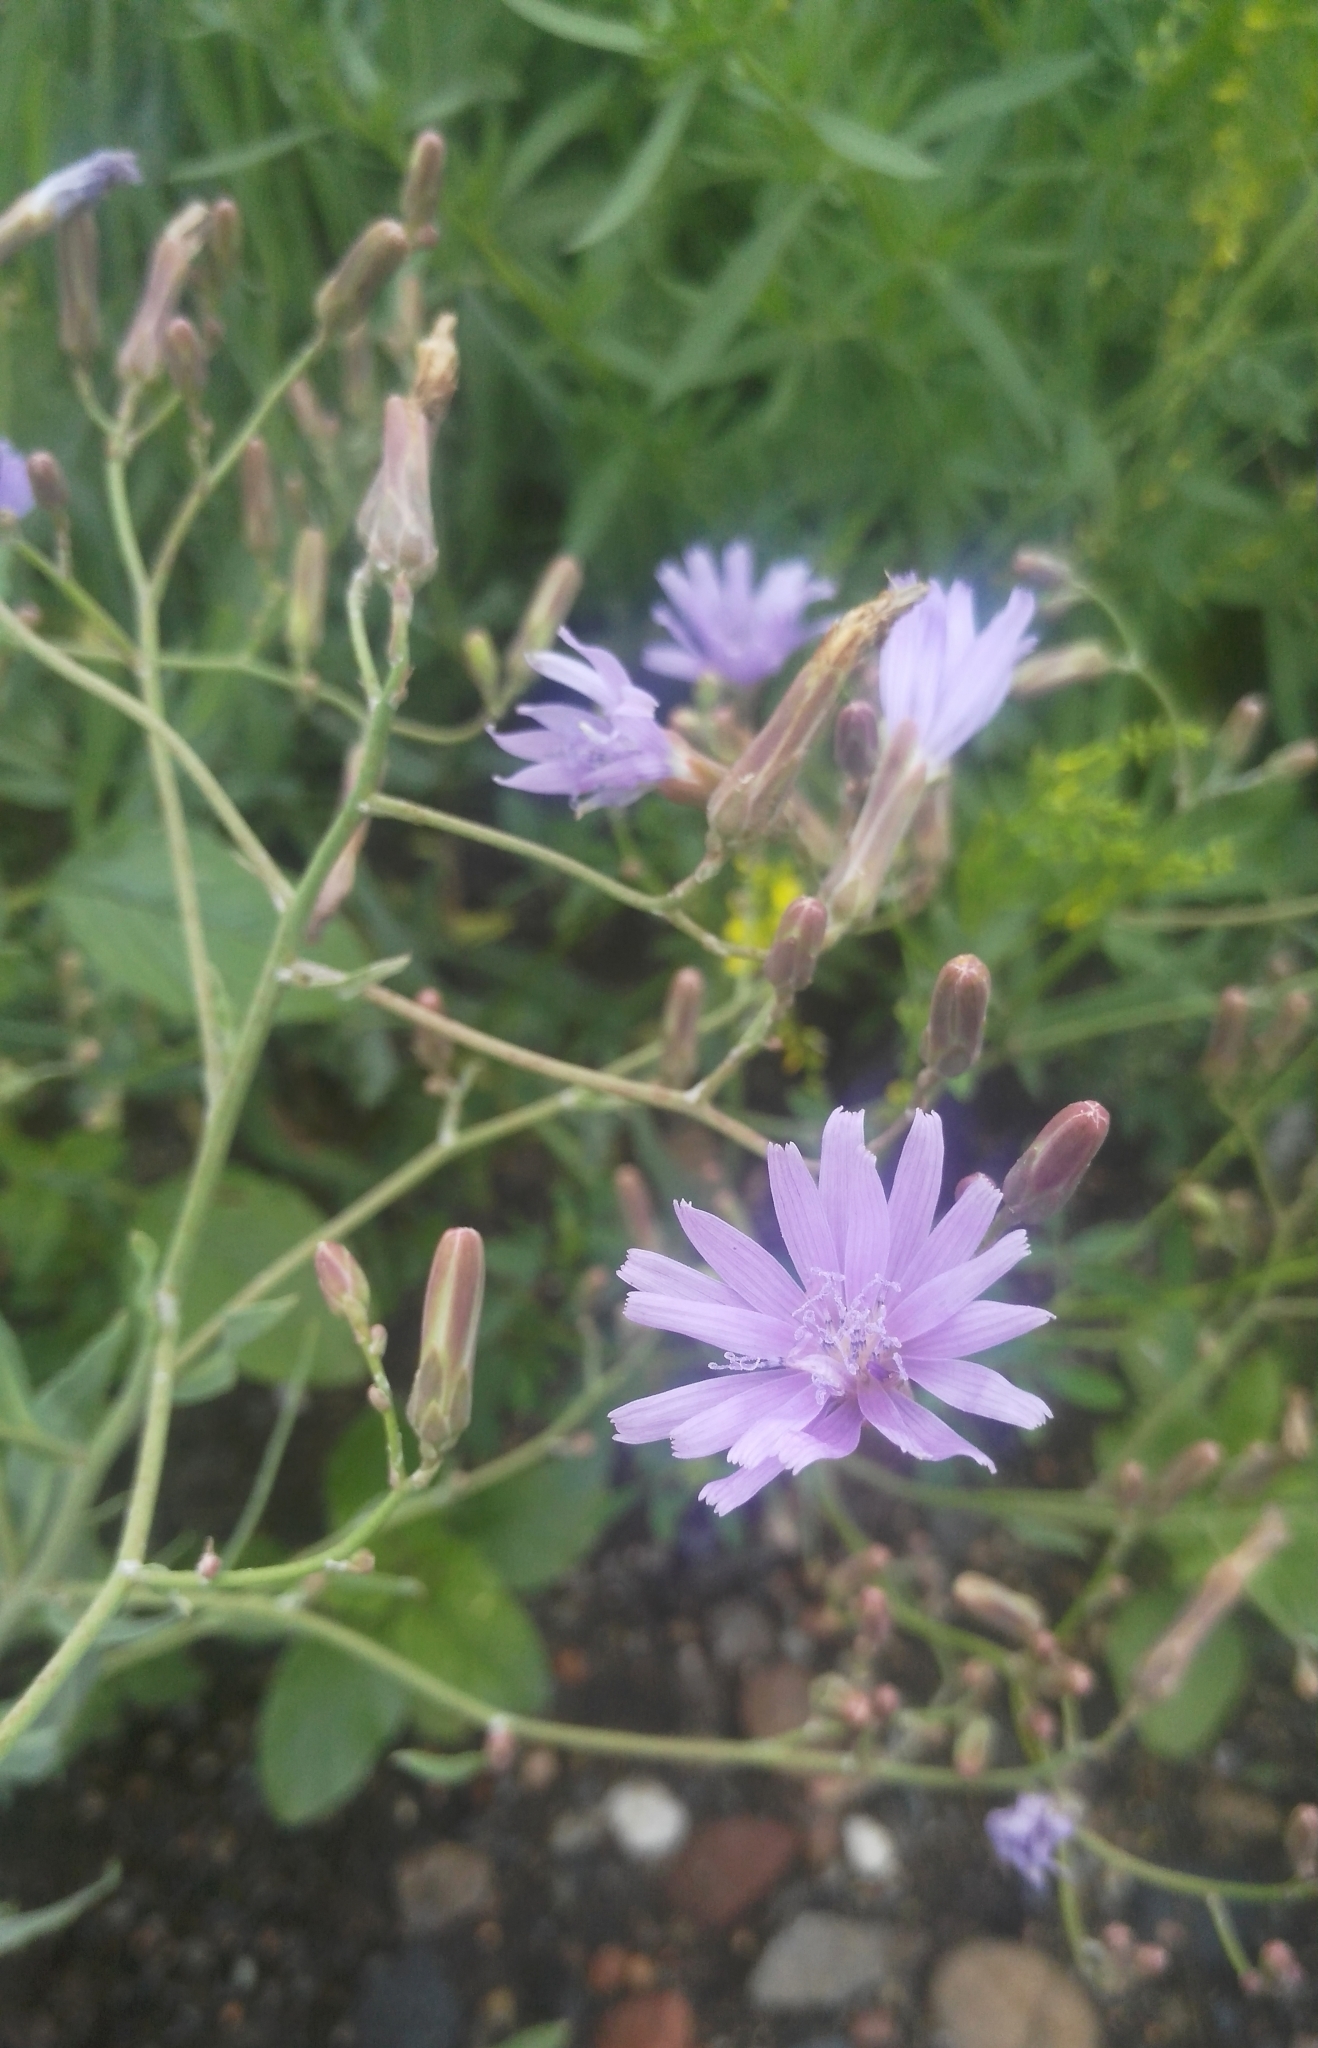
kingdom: Plantae
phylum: Tracheophyta
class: Magnoliopsida
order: Asterales
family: Asteraceae
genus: Lactuca
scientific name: Lactuca tatarica
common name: Blue lettuce
